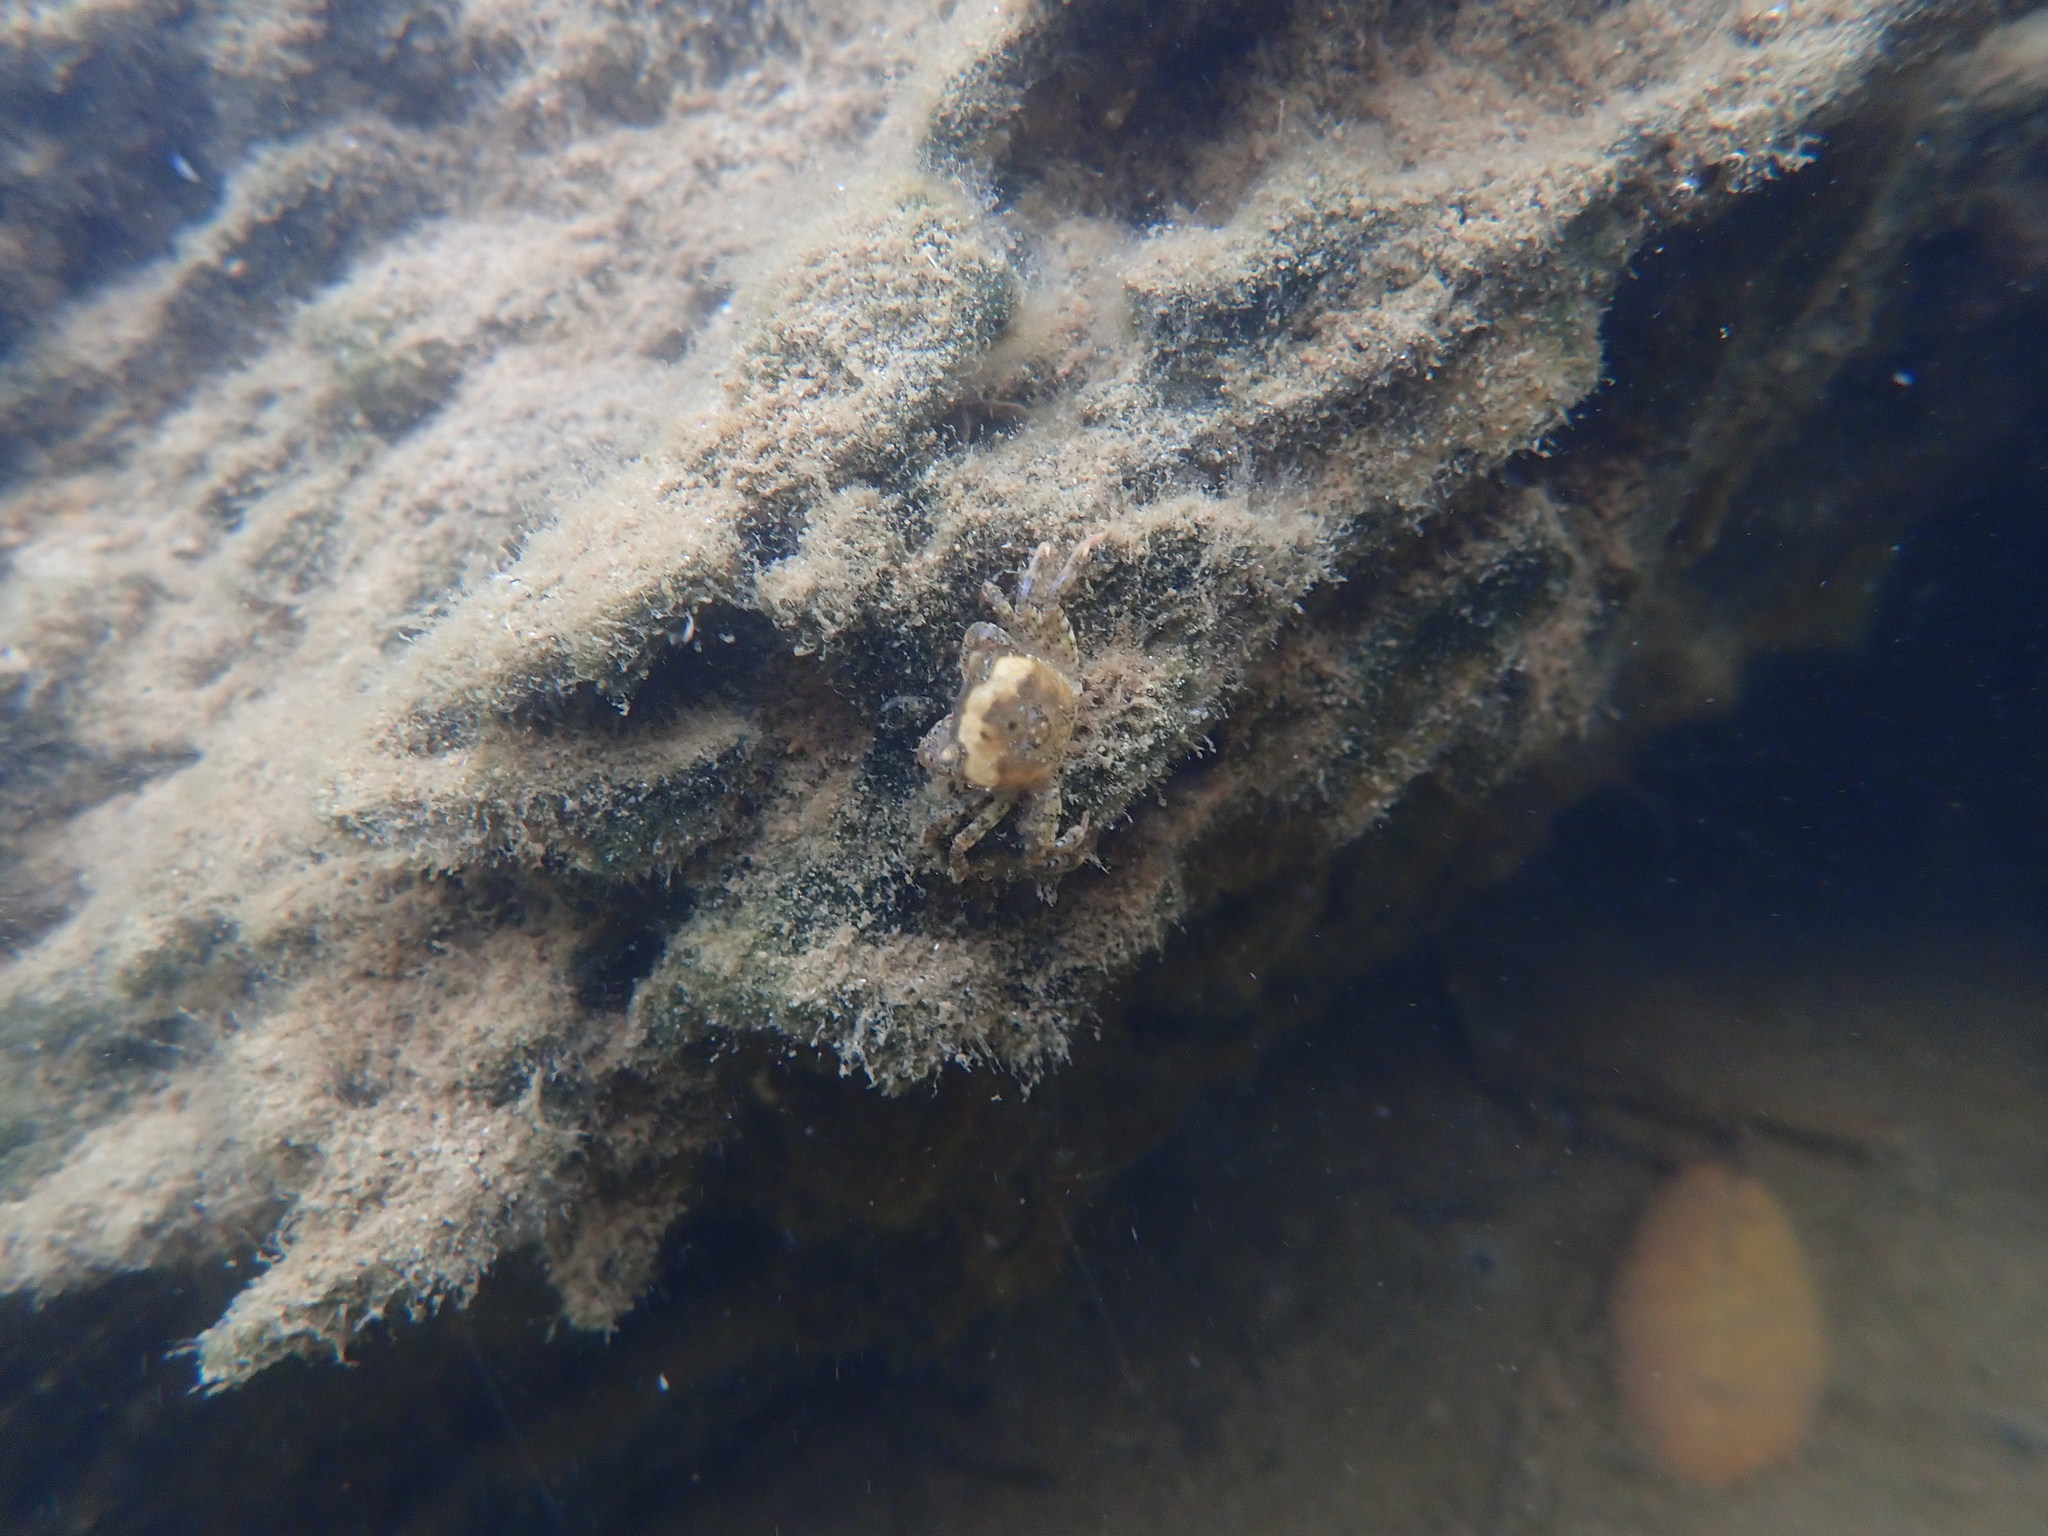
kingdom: Animalia
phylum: Arthropoda
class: Malacostraca
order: Decapoda
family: Varunidae
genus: Hemigrapsus
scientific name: Hemigrapsus crenulatus
